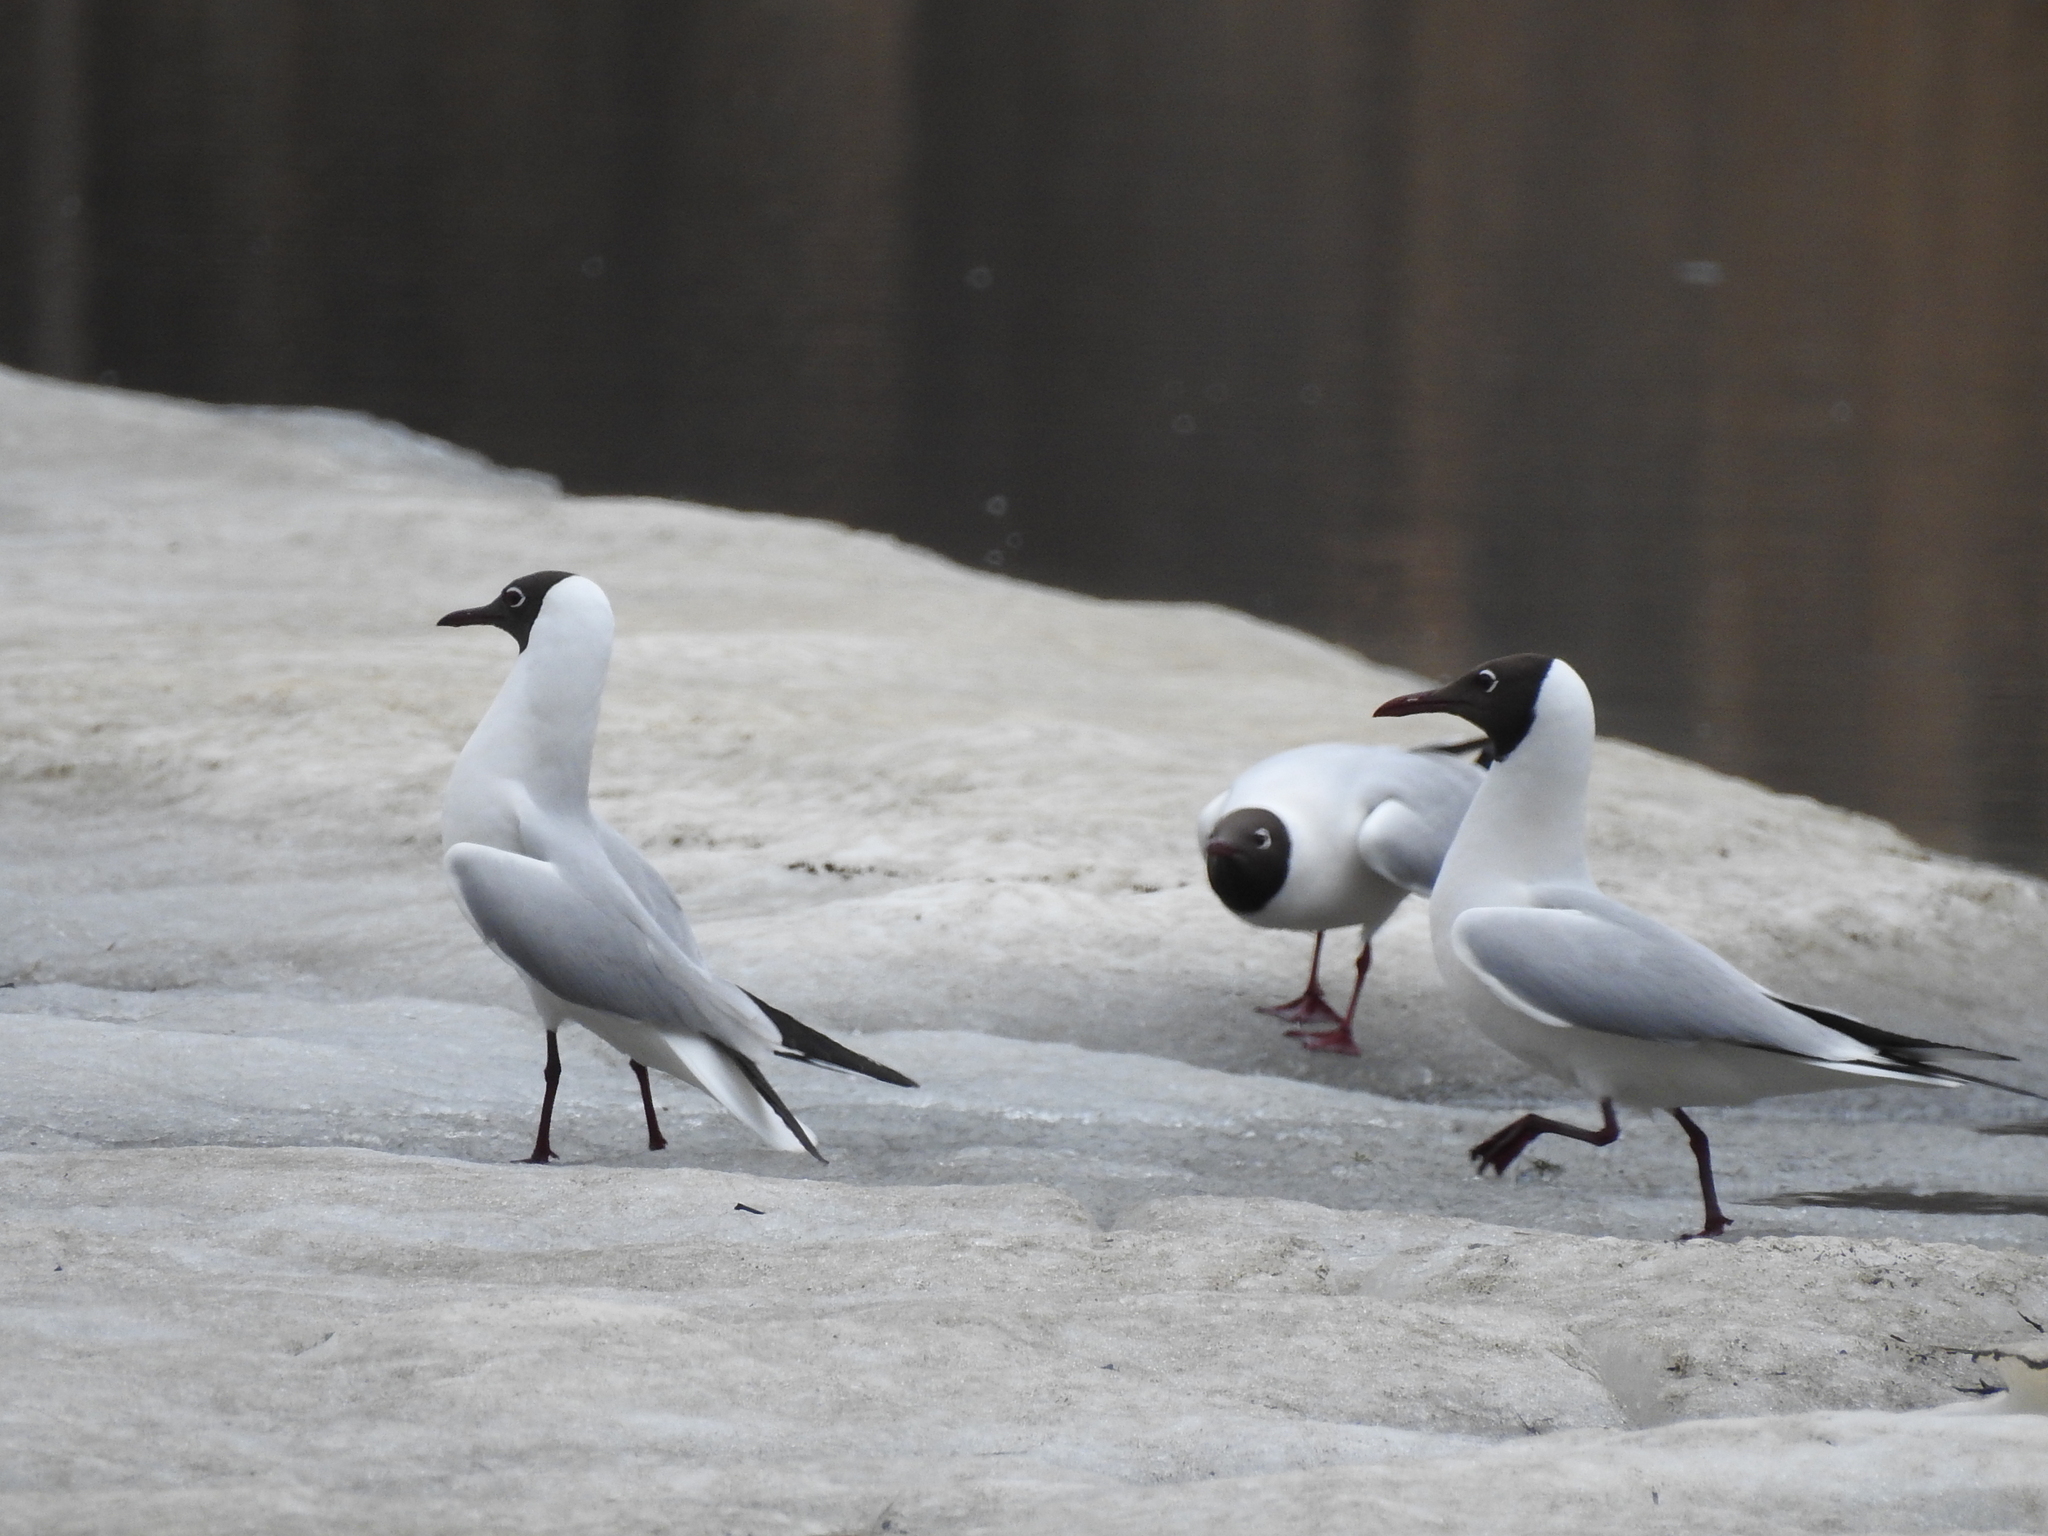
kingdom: Animalia
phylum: Chordata
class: Aves
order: Charadriiformes
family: Laridae
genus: Chroicocephalus
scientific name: Chroicocephalus ridibundus
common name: Black-headed gull
